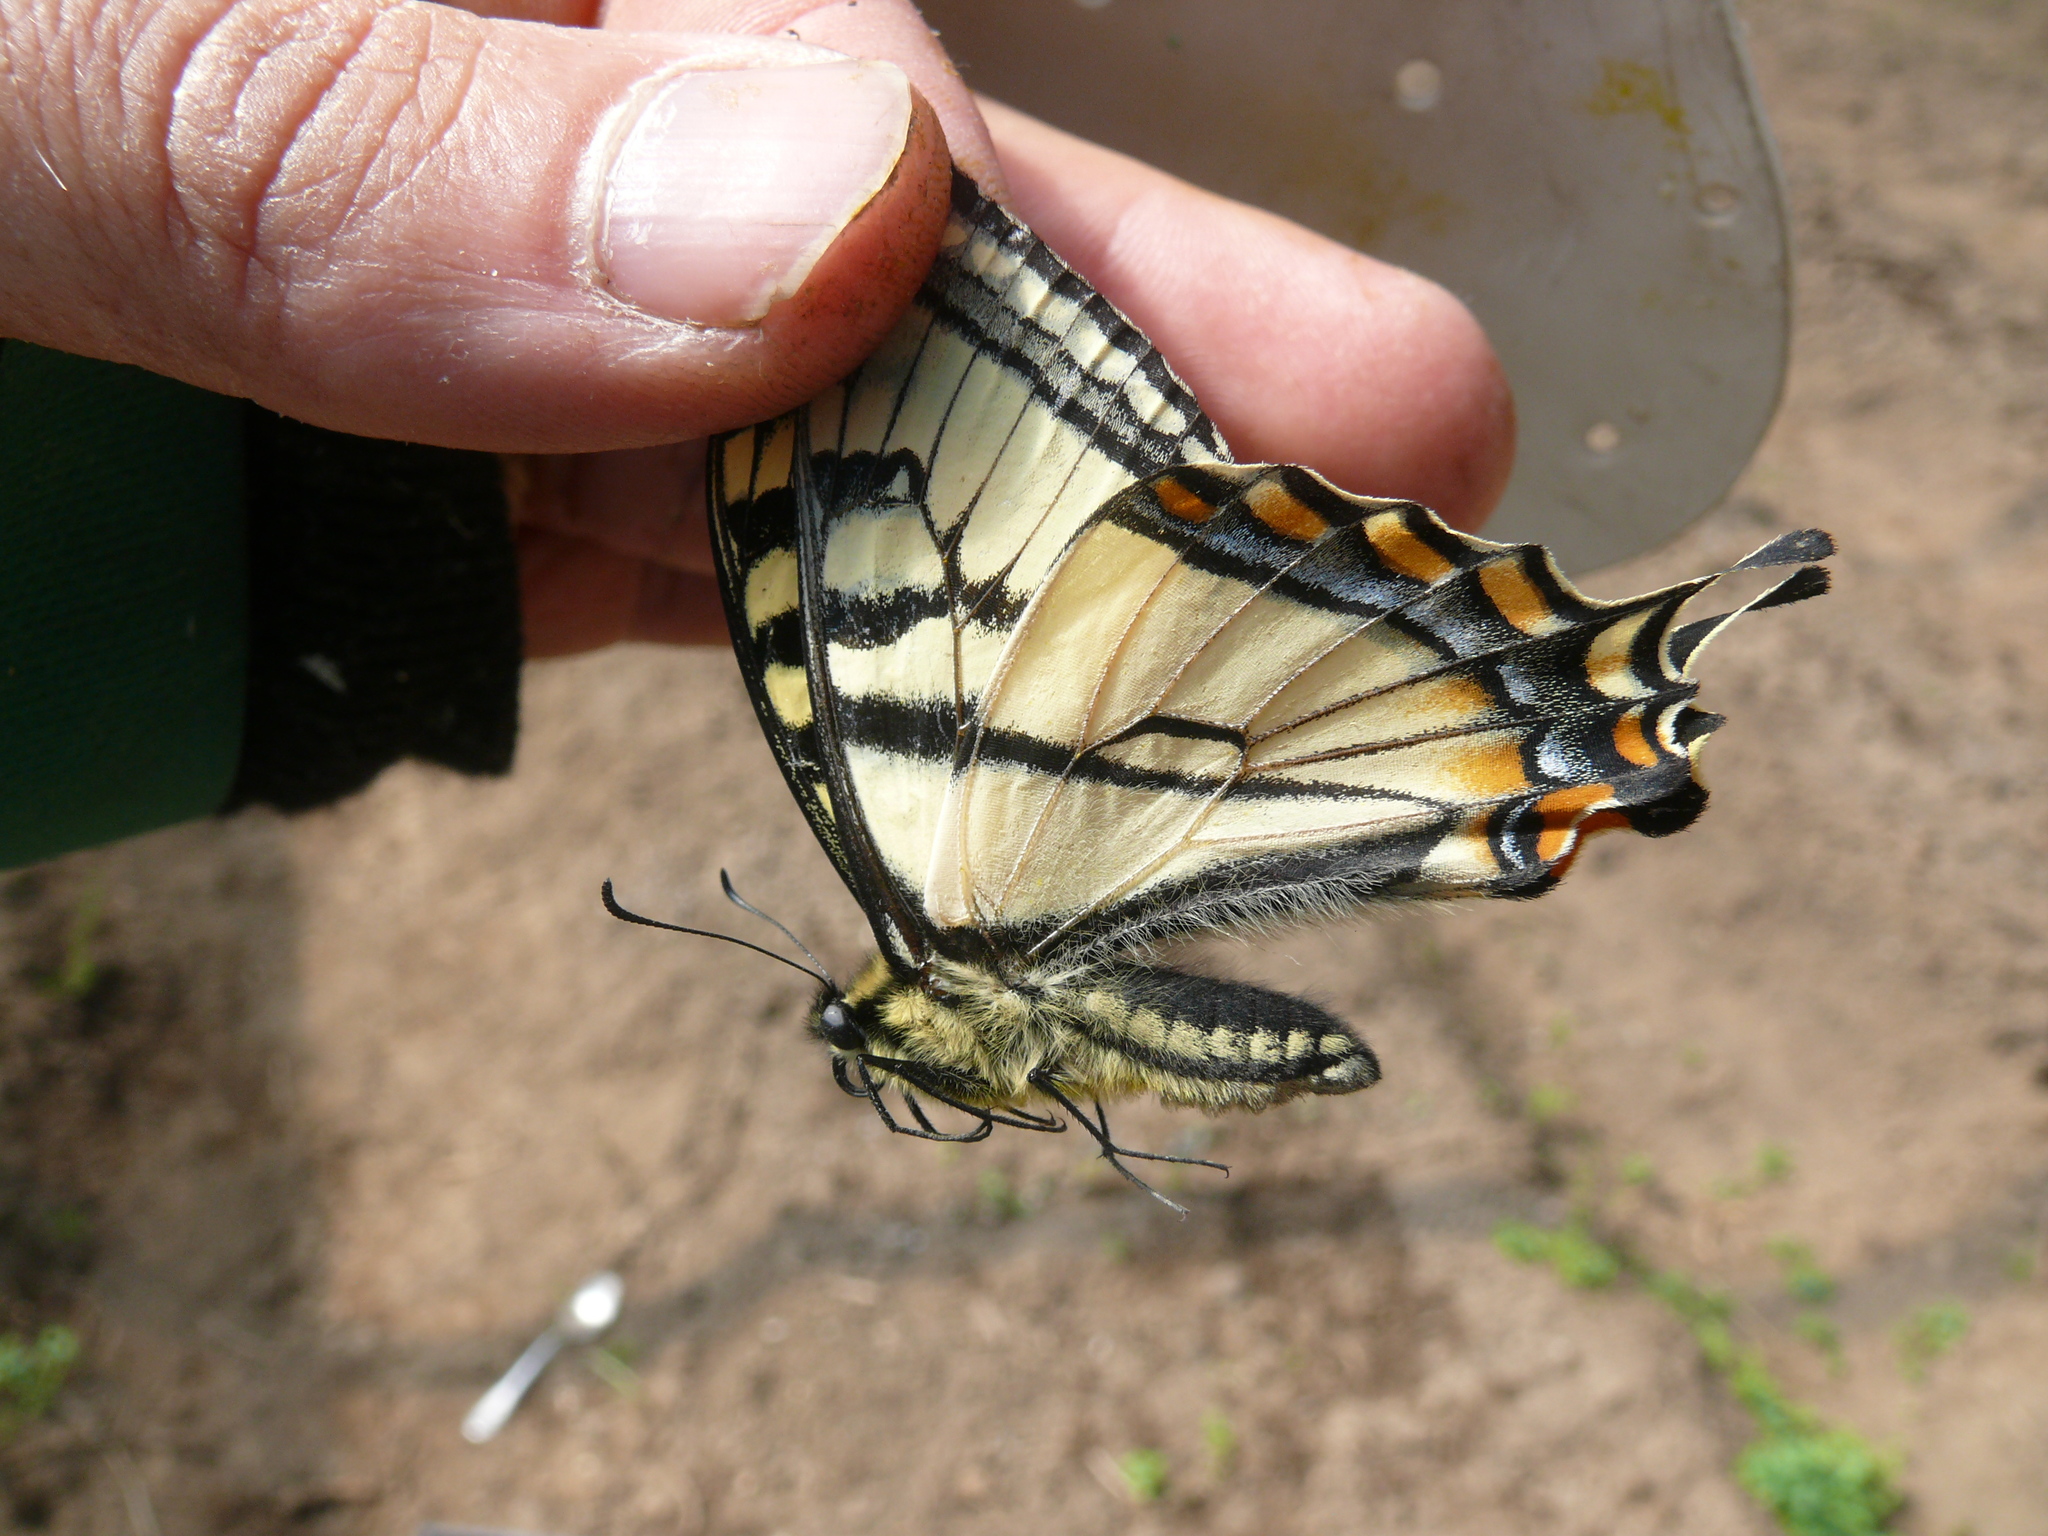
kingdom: Animalia
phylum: Arthropoda
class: Insecta
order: Lepidoptera
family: Papilionidae
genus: Papilio
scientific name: Papilio canadensis
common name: Canadian tiger swallowtail
